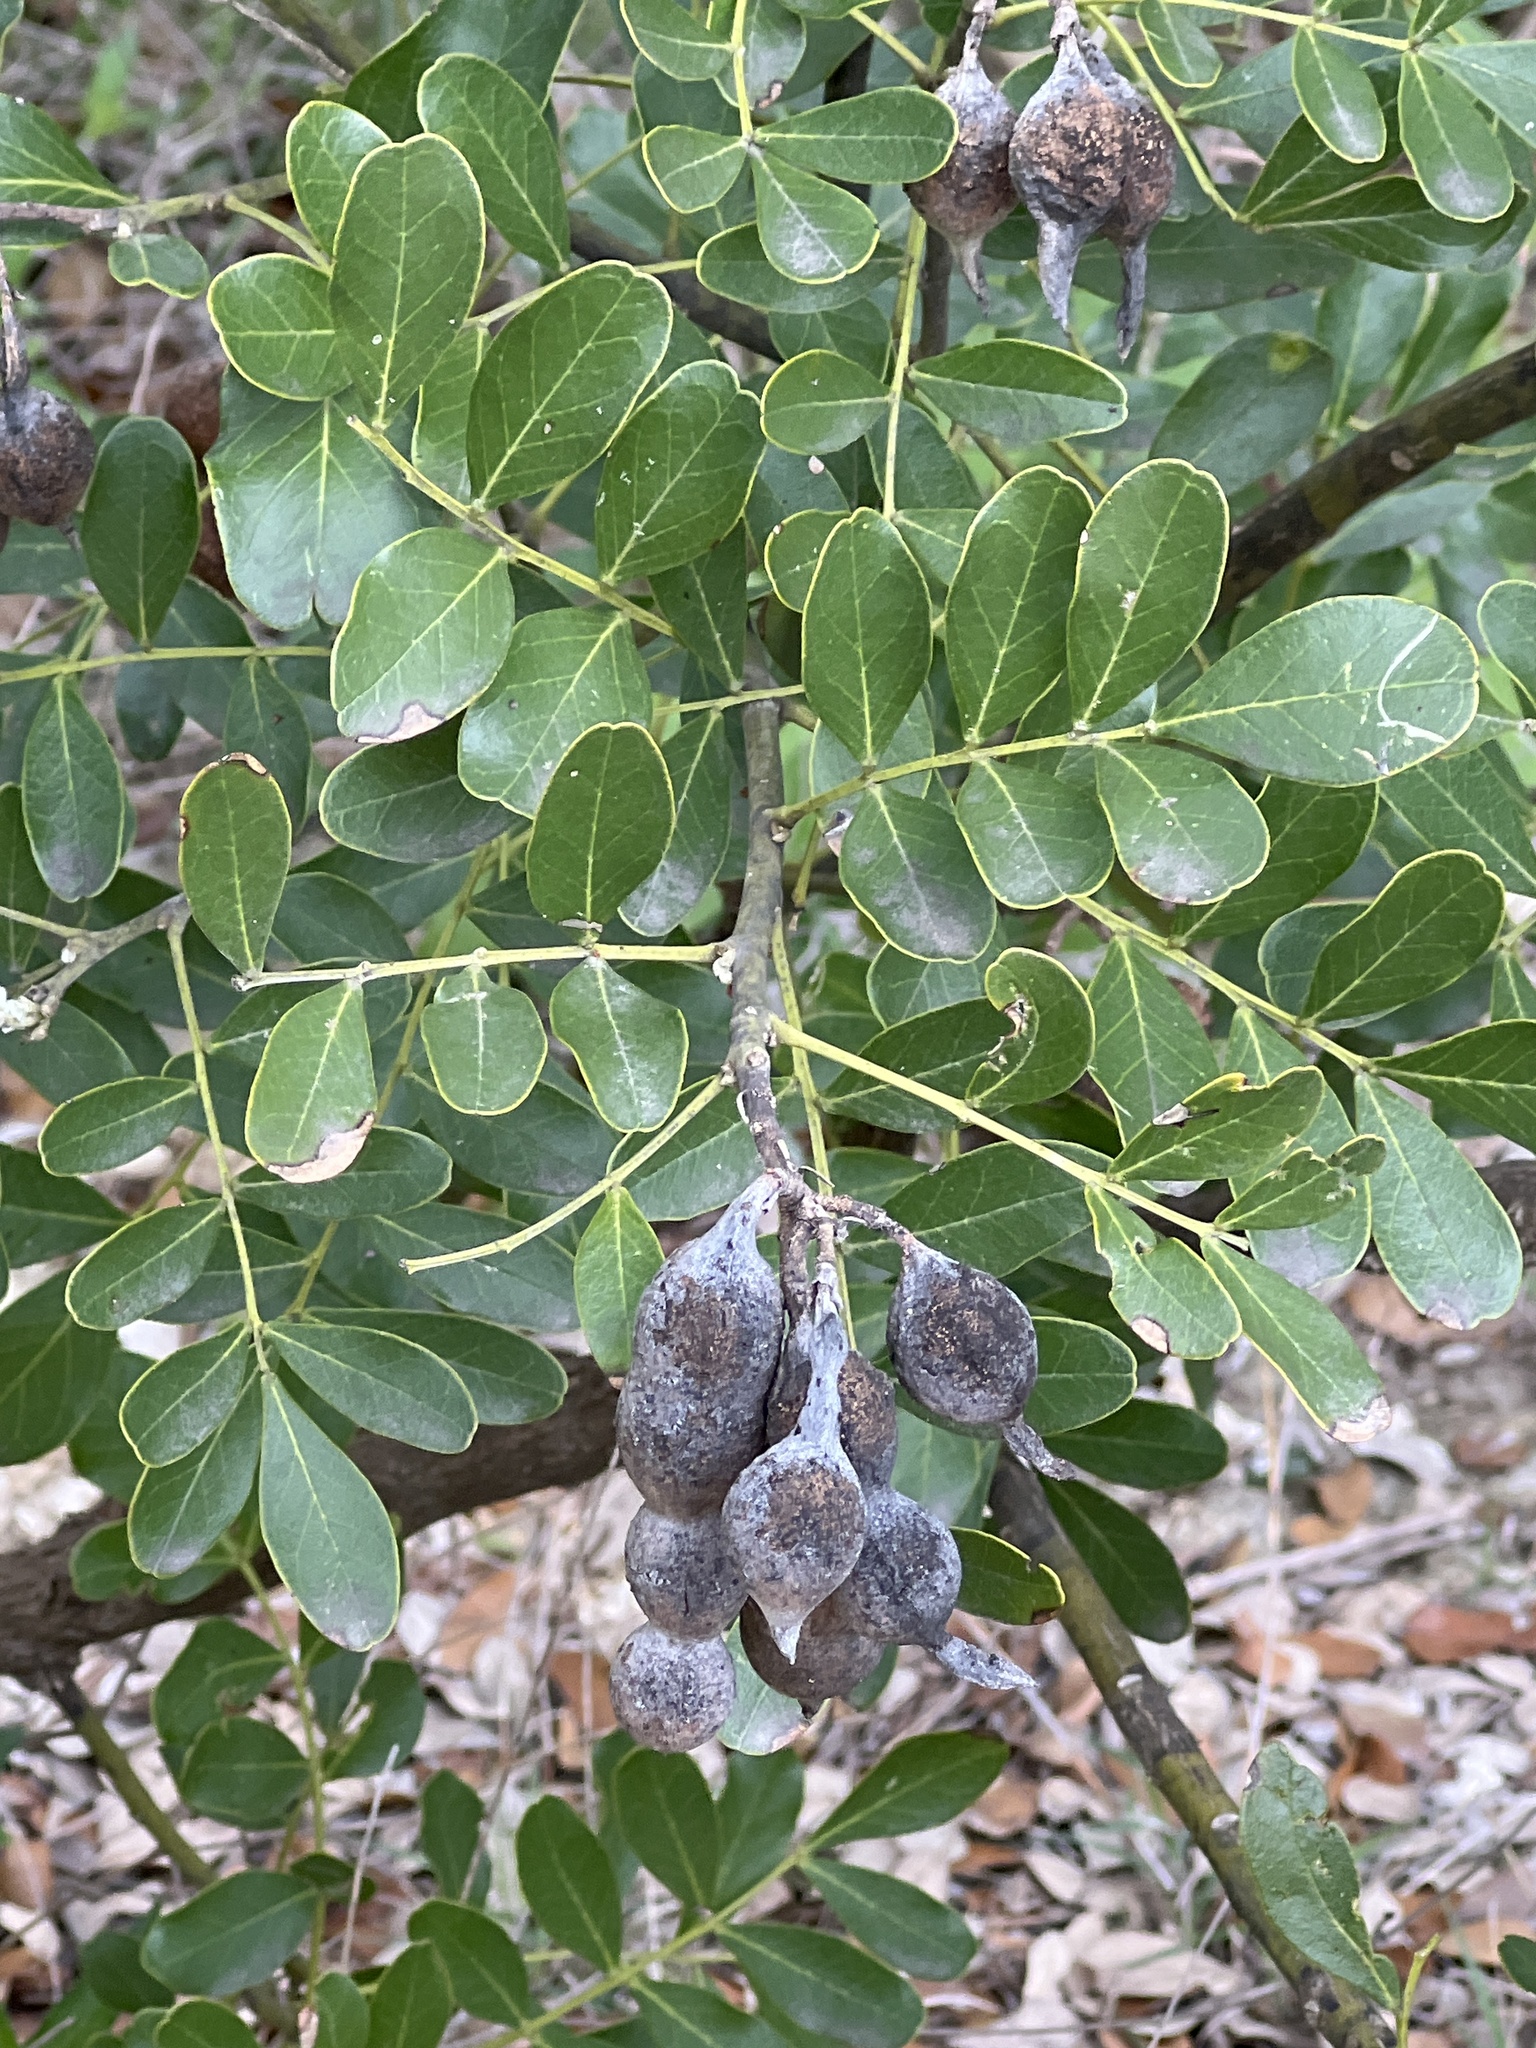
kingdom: Plantae
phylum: Tracheophyta
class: Magnoliopsida
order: Fabales
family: Fabaceae
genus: Dermatophyllum
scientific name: Dermatophyllum secundiflorum
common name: Texas-mountain-laurel
